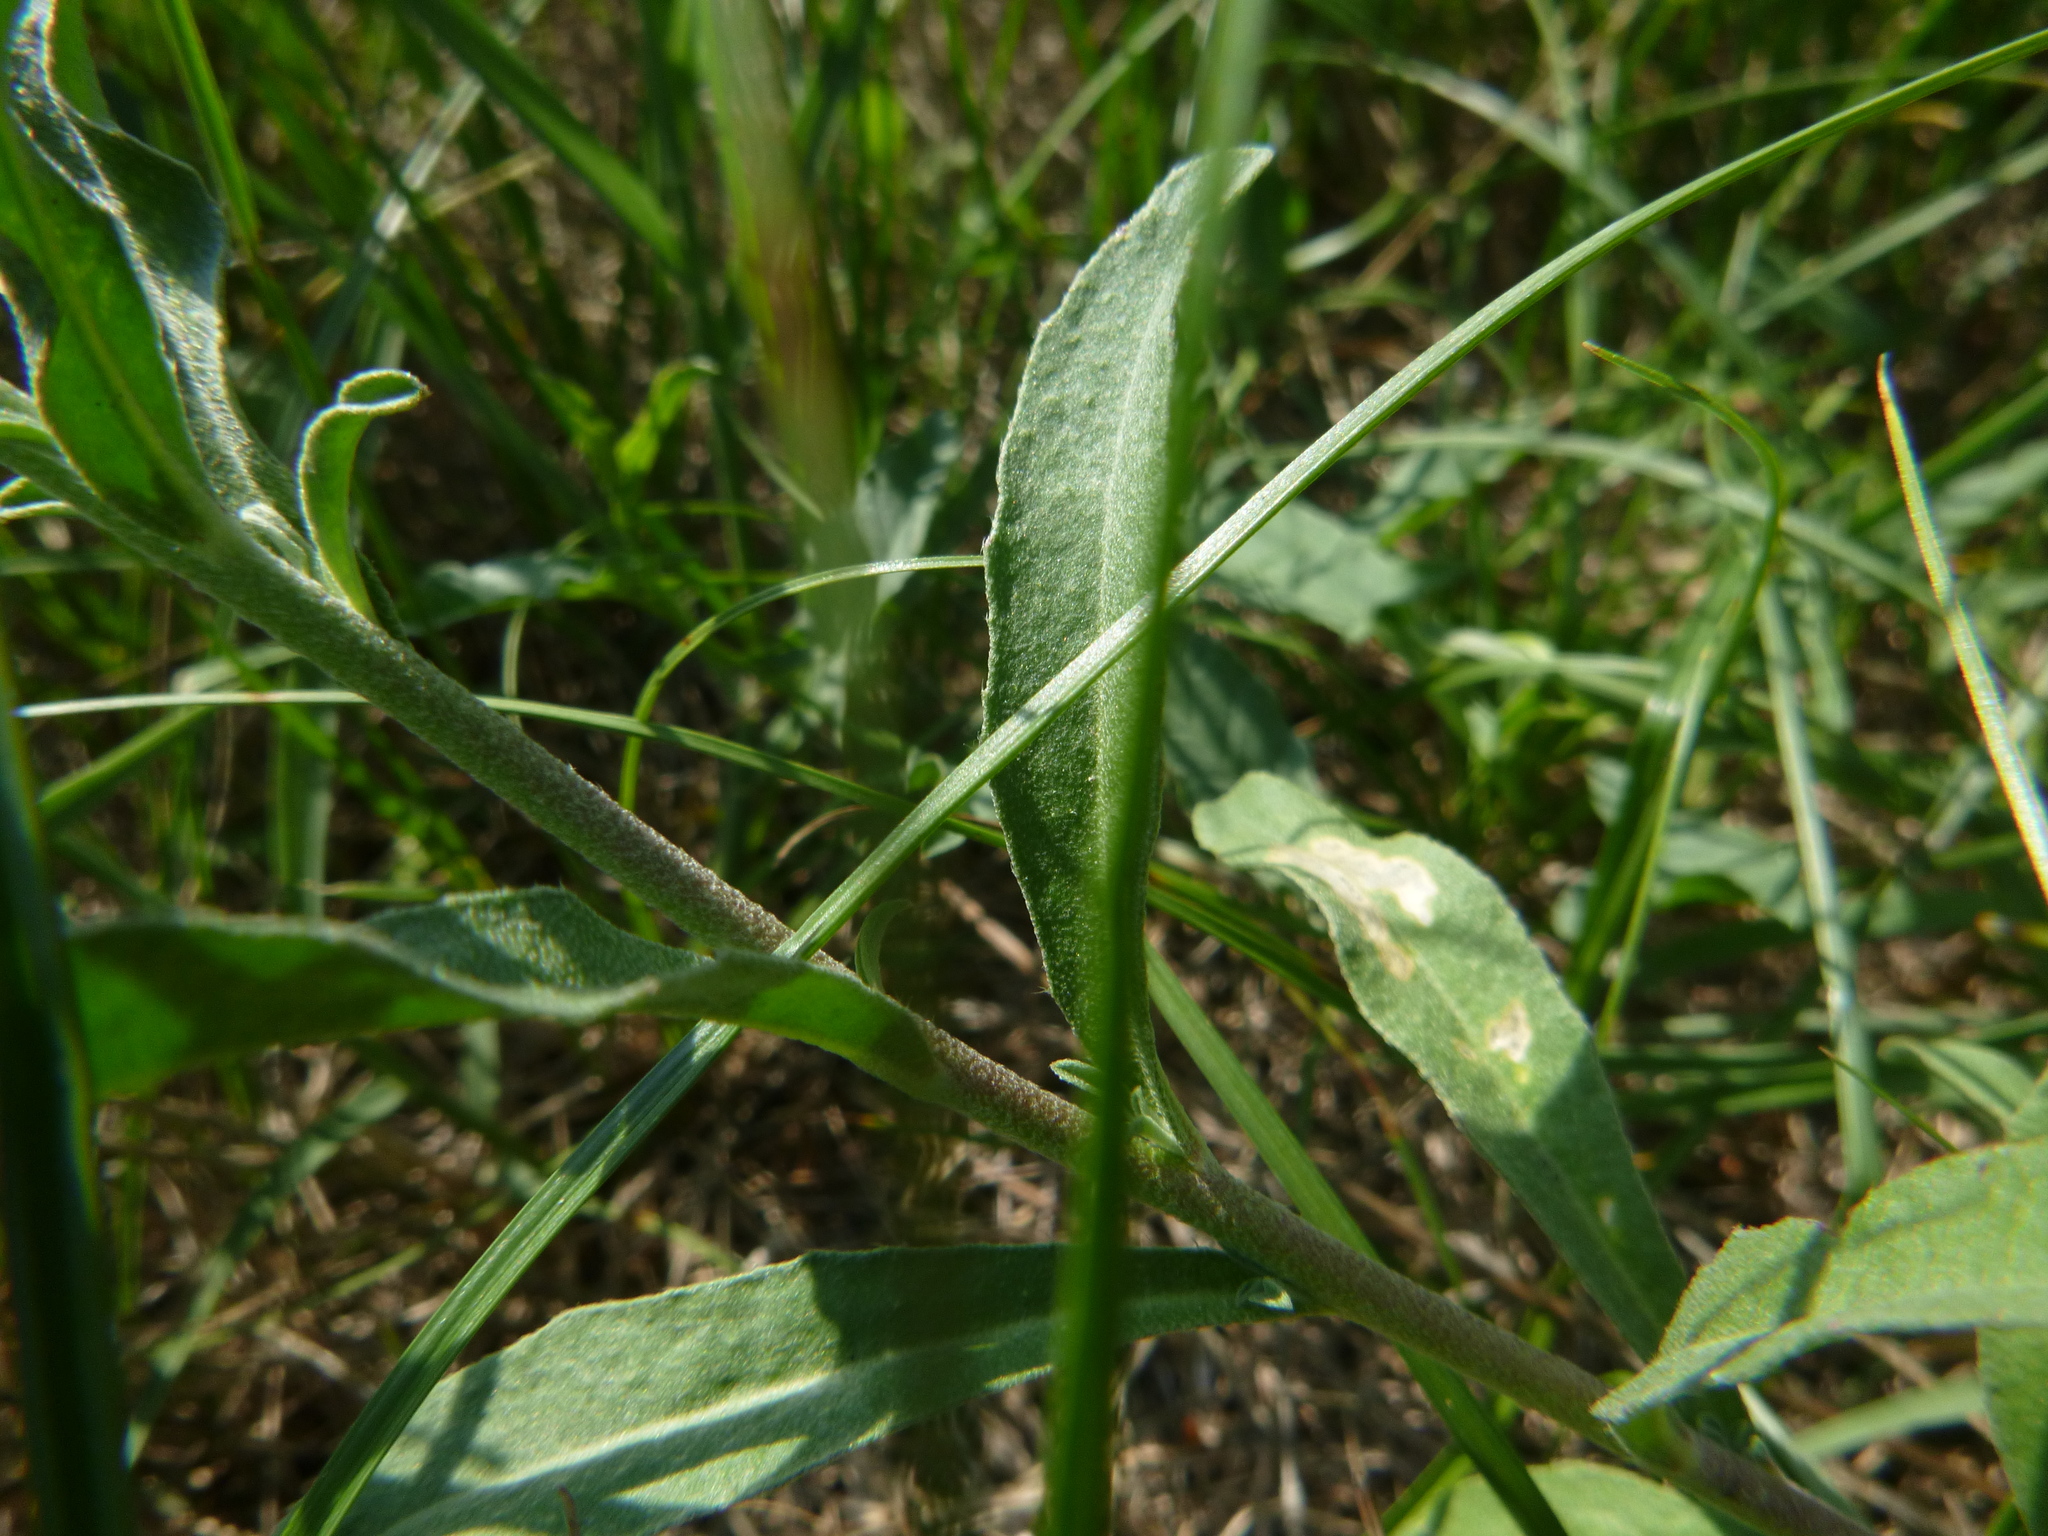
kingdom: Plantae
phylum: Tracheophyta
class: Magnoliopsida
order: Brassicales
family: Brassicaceae
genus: Berteroa
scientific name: Berteroa incana
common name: Hoary alison
